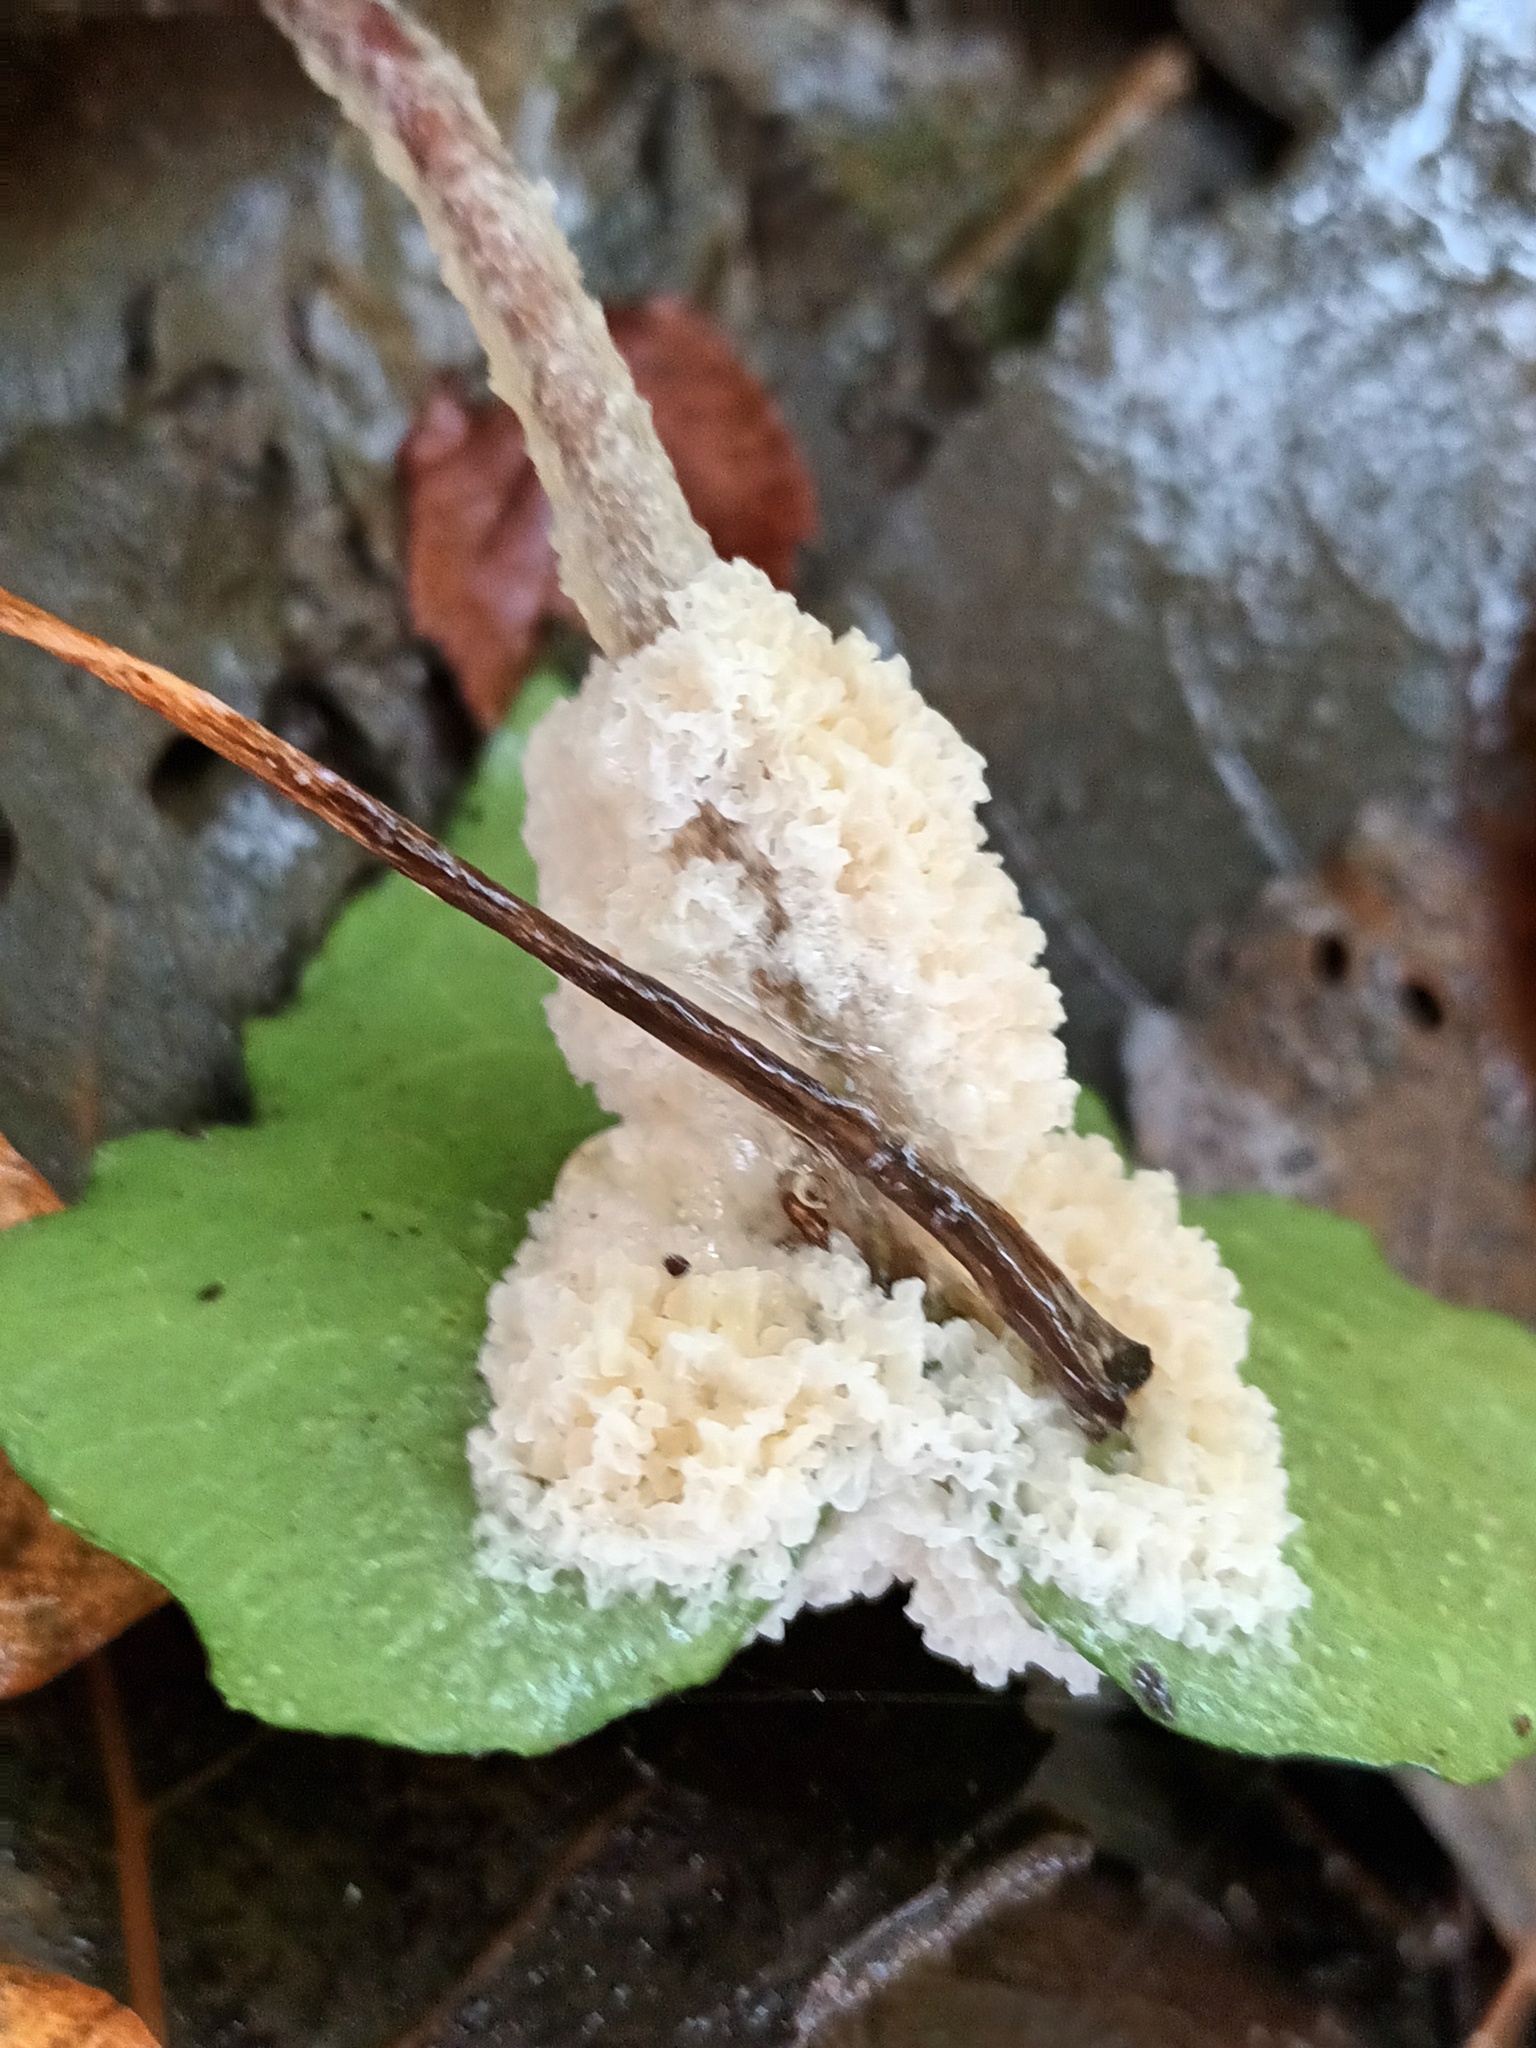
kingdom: Protozoa
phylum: Mycetozoa
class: Myxomycetes
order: Physarales
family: Physaraceae
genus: Didymium
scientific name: Didymium
